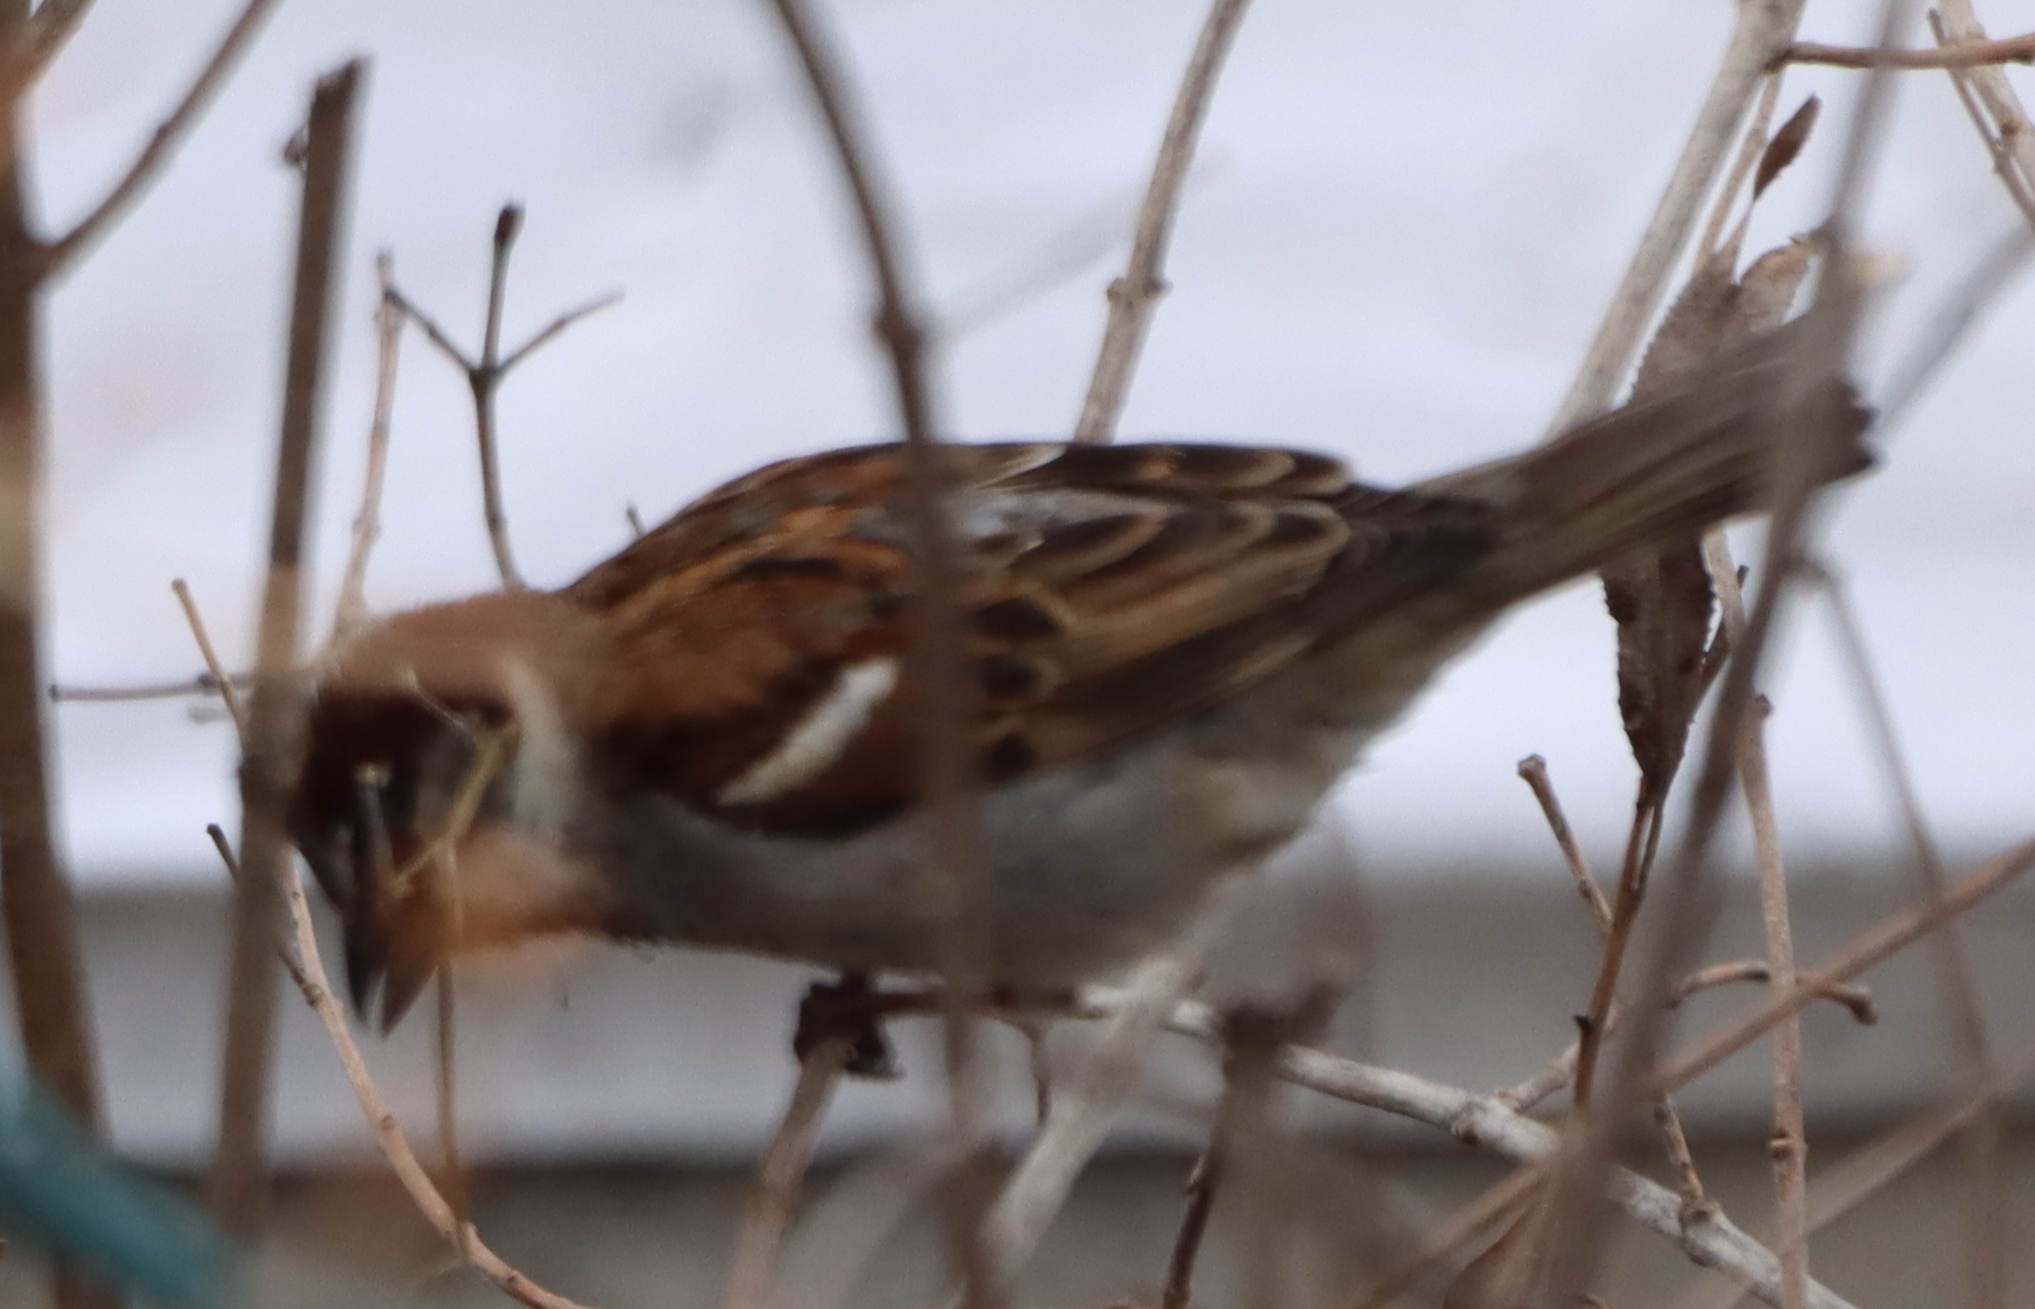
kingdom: Animalia
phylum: Chordata
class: Aves
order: Passeriformes
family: Passeridae
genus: Passer
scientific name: Passer domesticus
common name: House sparrow
